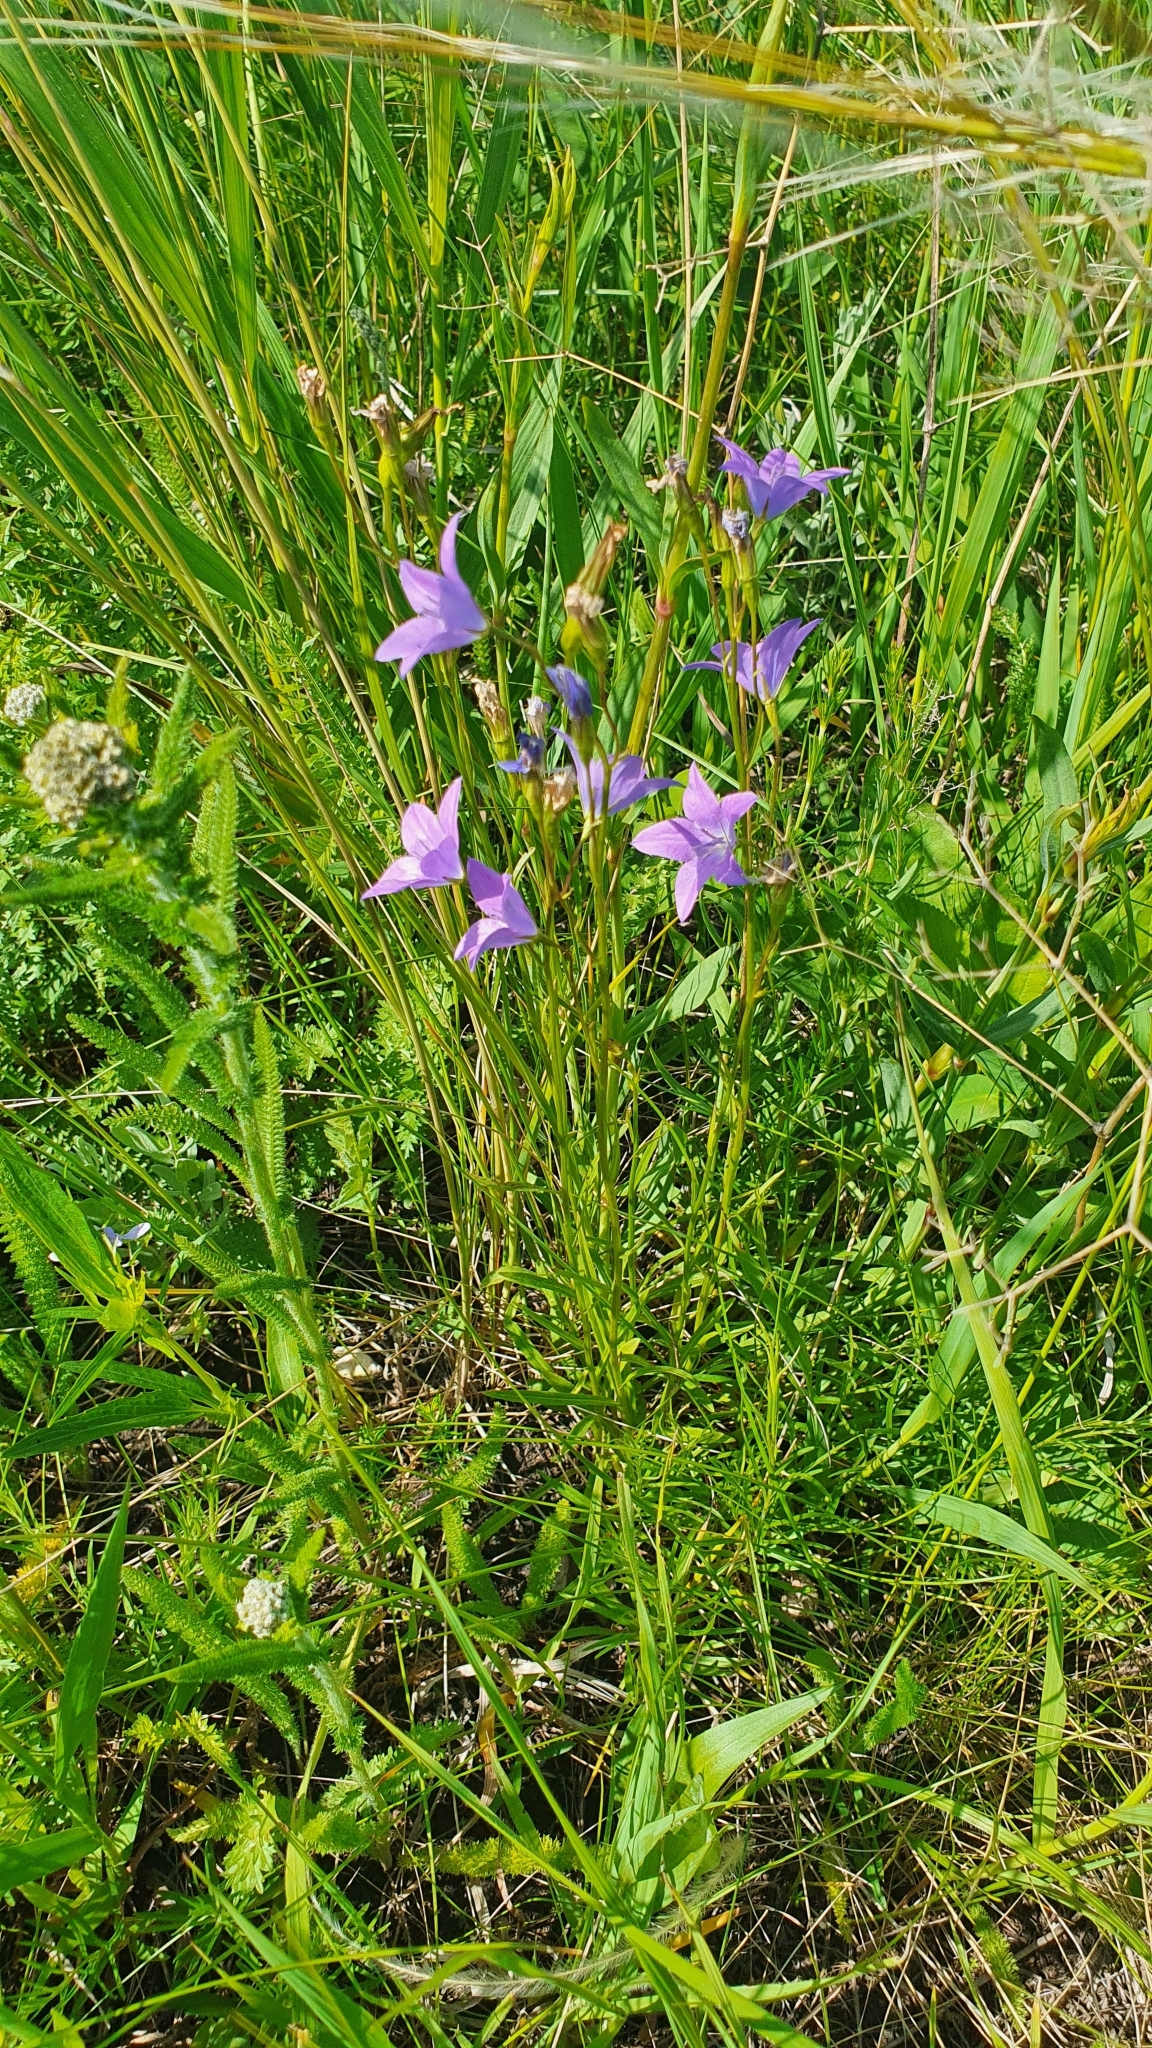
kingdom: Plantae
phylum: Tracheophyta
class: Magnoliopsida
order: Asterales
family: Campanulaceae
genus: Campanula
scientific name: Campanula stevenii
